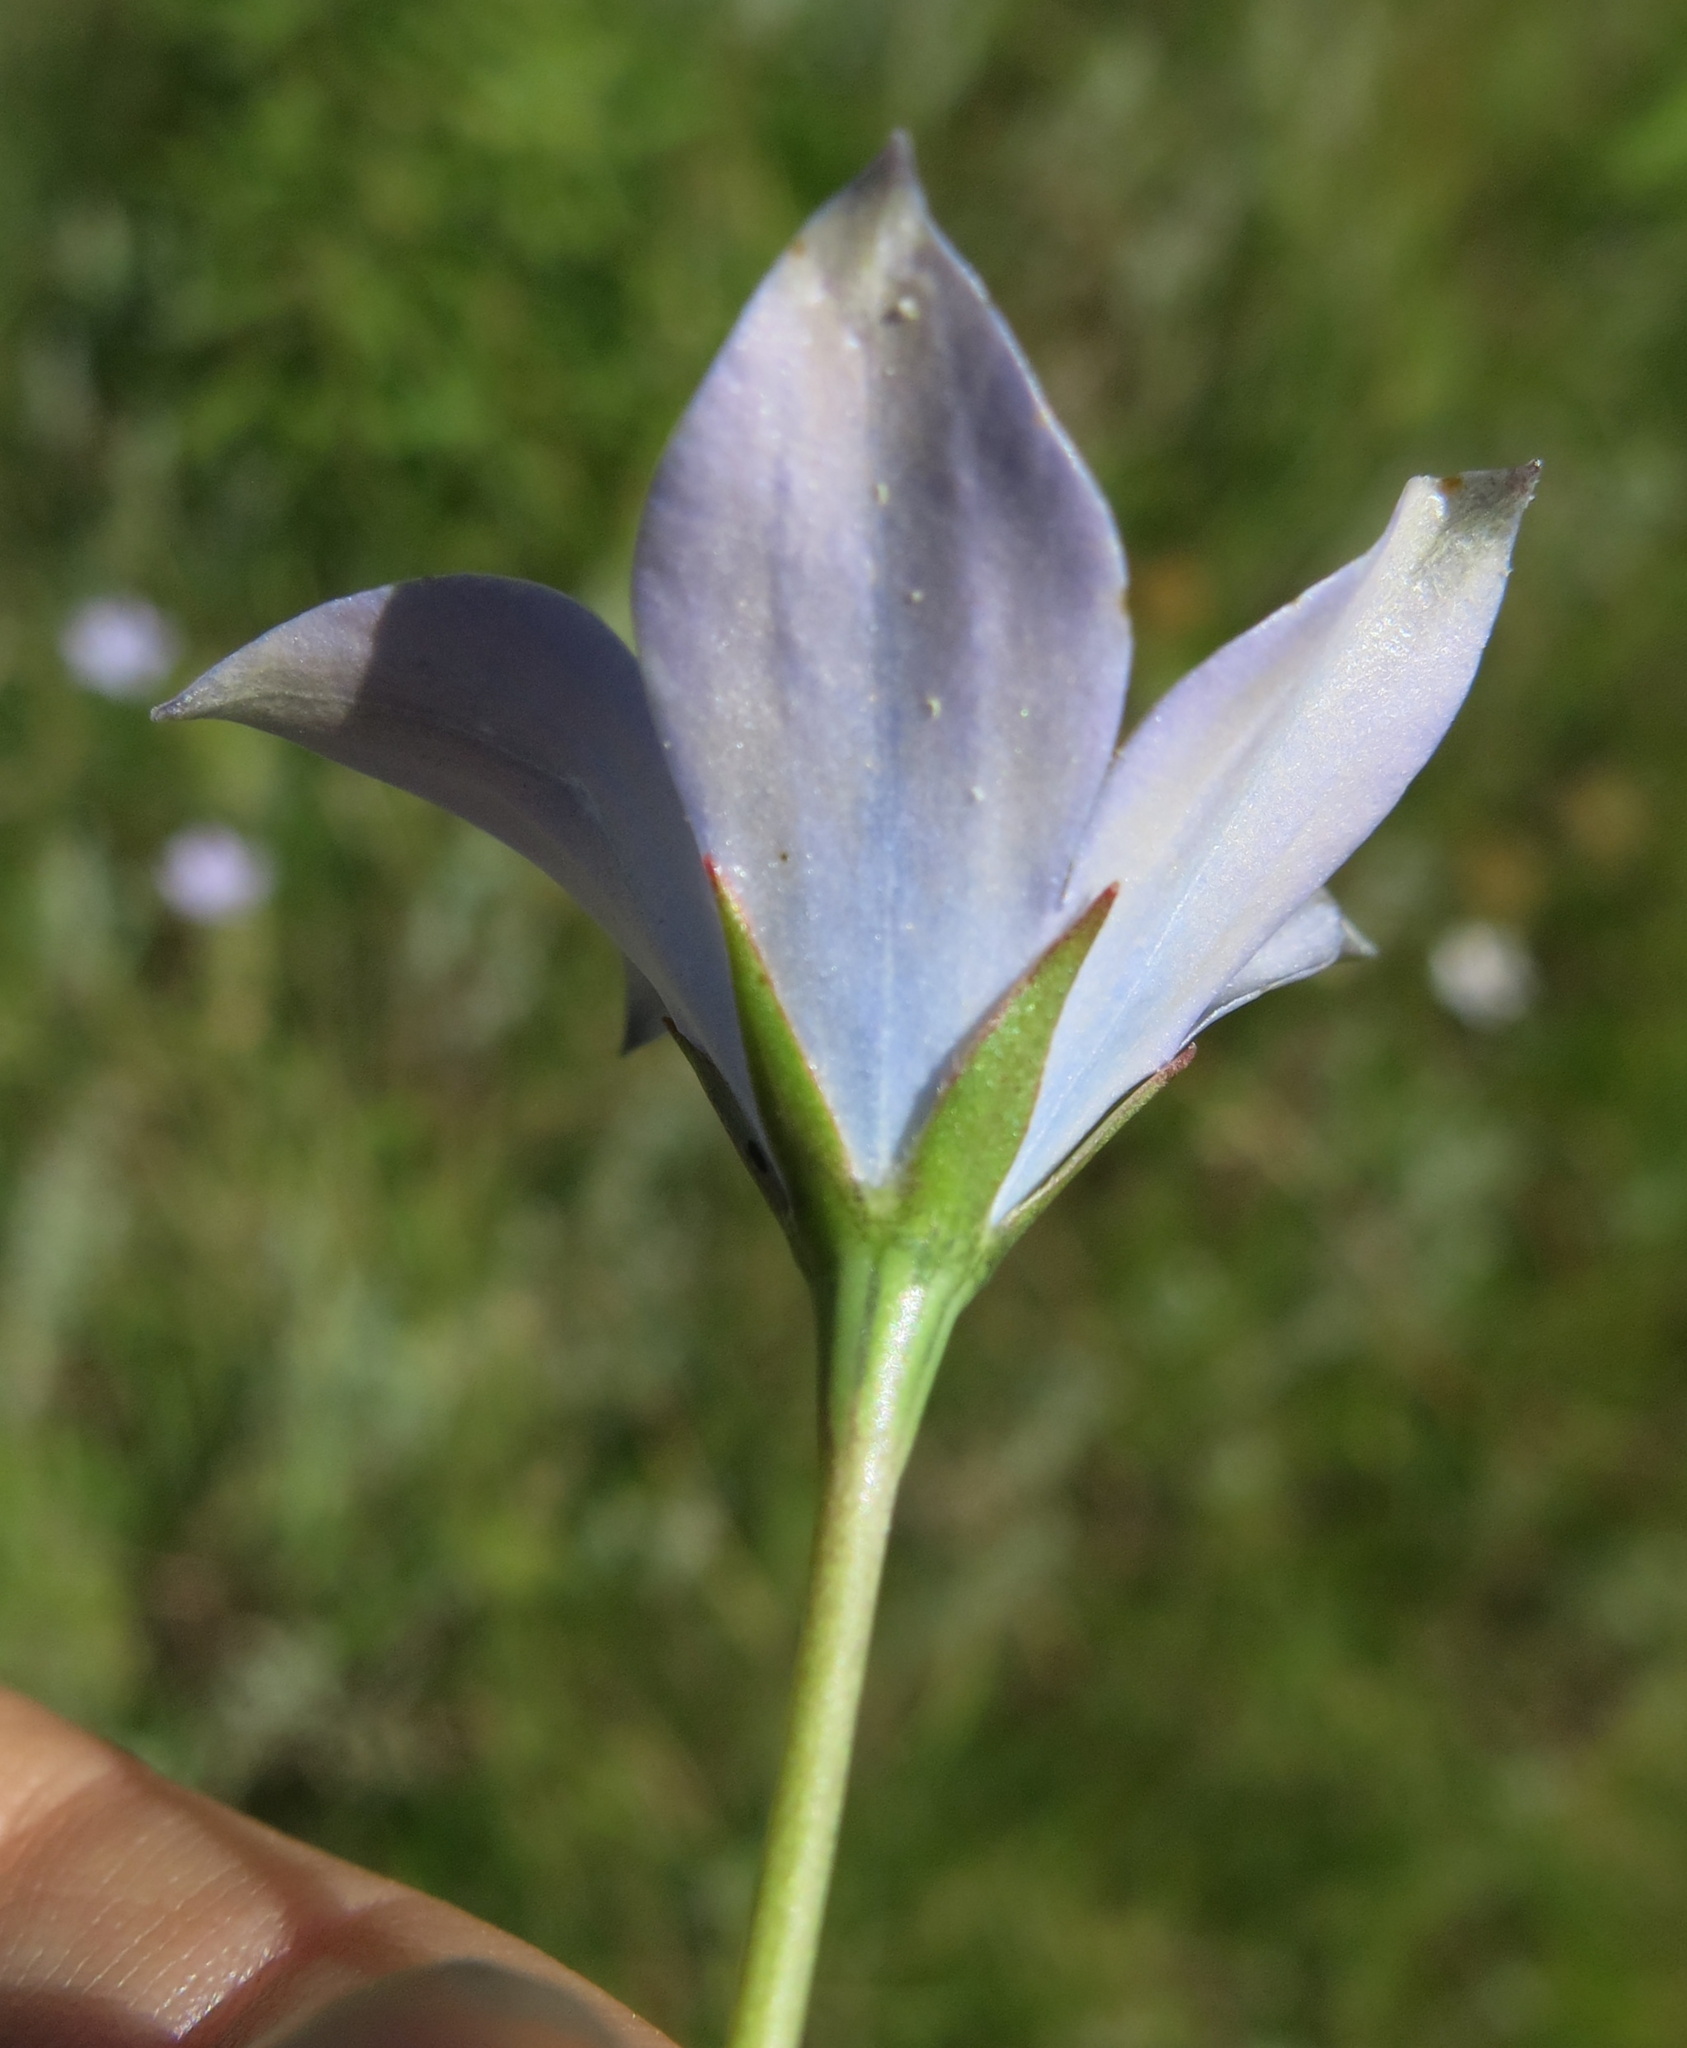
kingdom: Plantae
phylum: Tracheophyta
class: Magnoliopsida
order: Asterales
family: Campanulaceae
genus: Wahlenbergia
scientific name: Wahlenbergia krebsii
